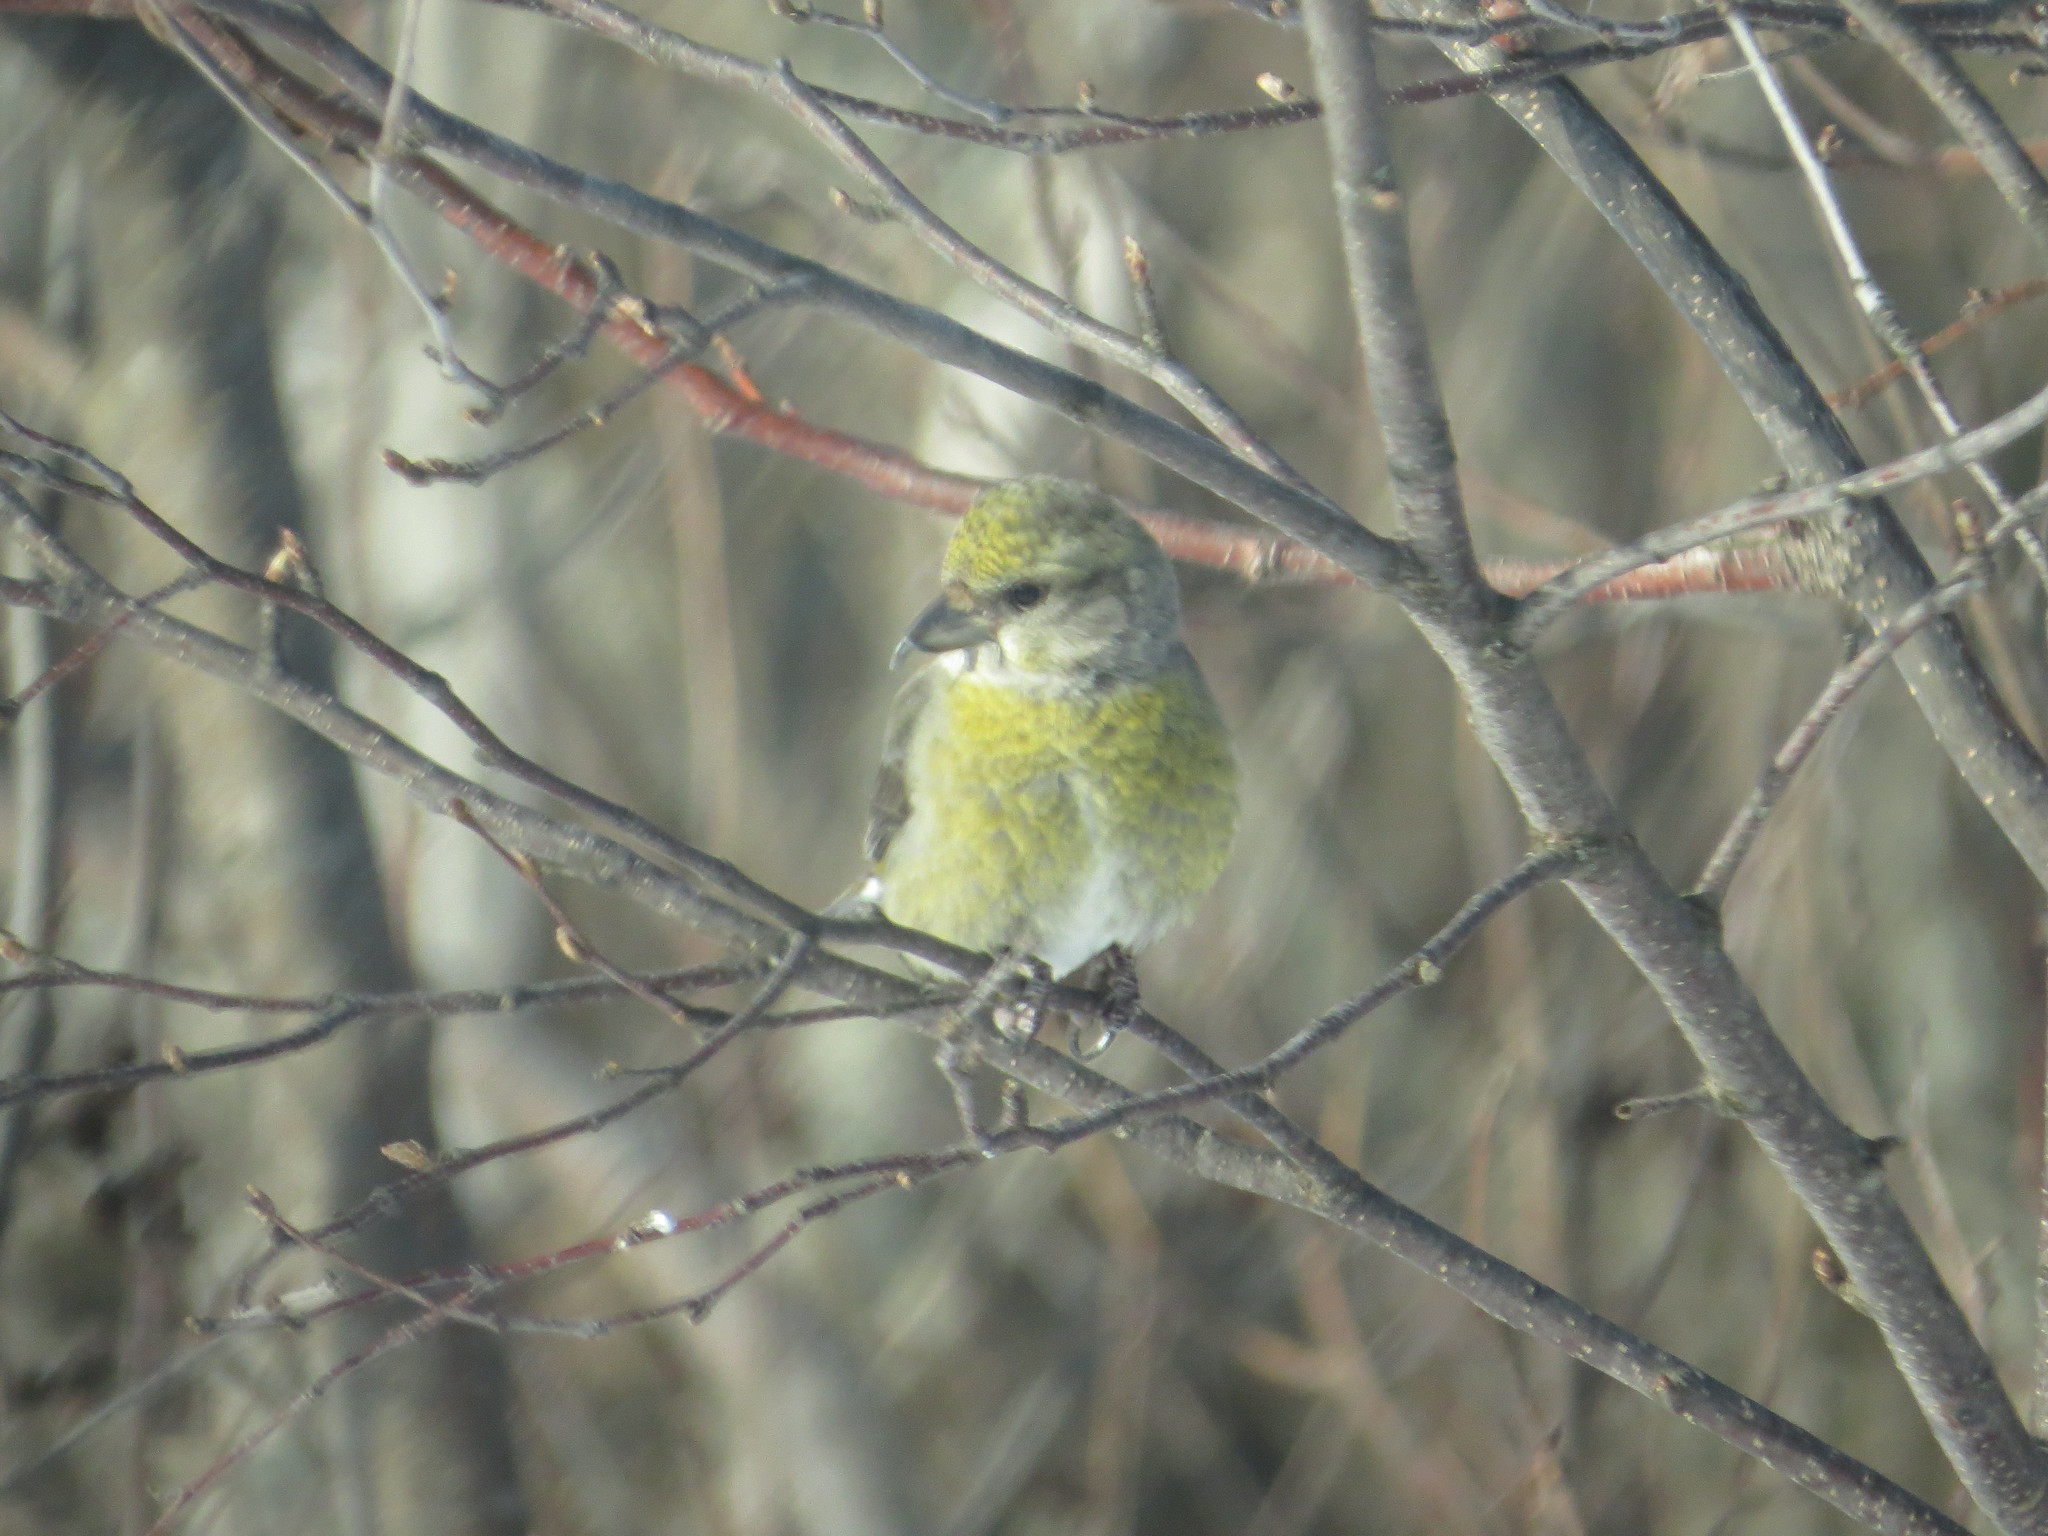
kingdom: Animalia
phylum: Chordata
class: Aves
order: Passeriformes
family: Fringillidae
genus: Loxia
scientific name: Loxia curvirostra
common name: Red crossbill
